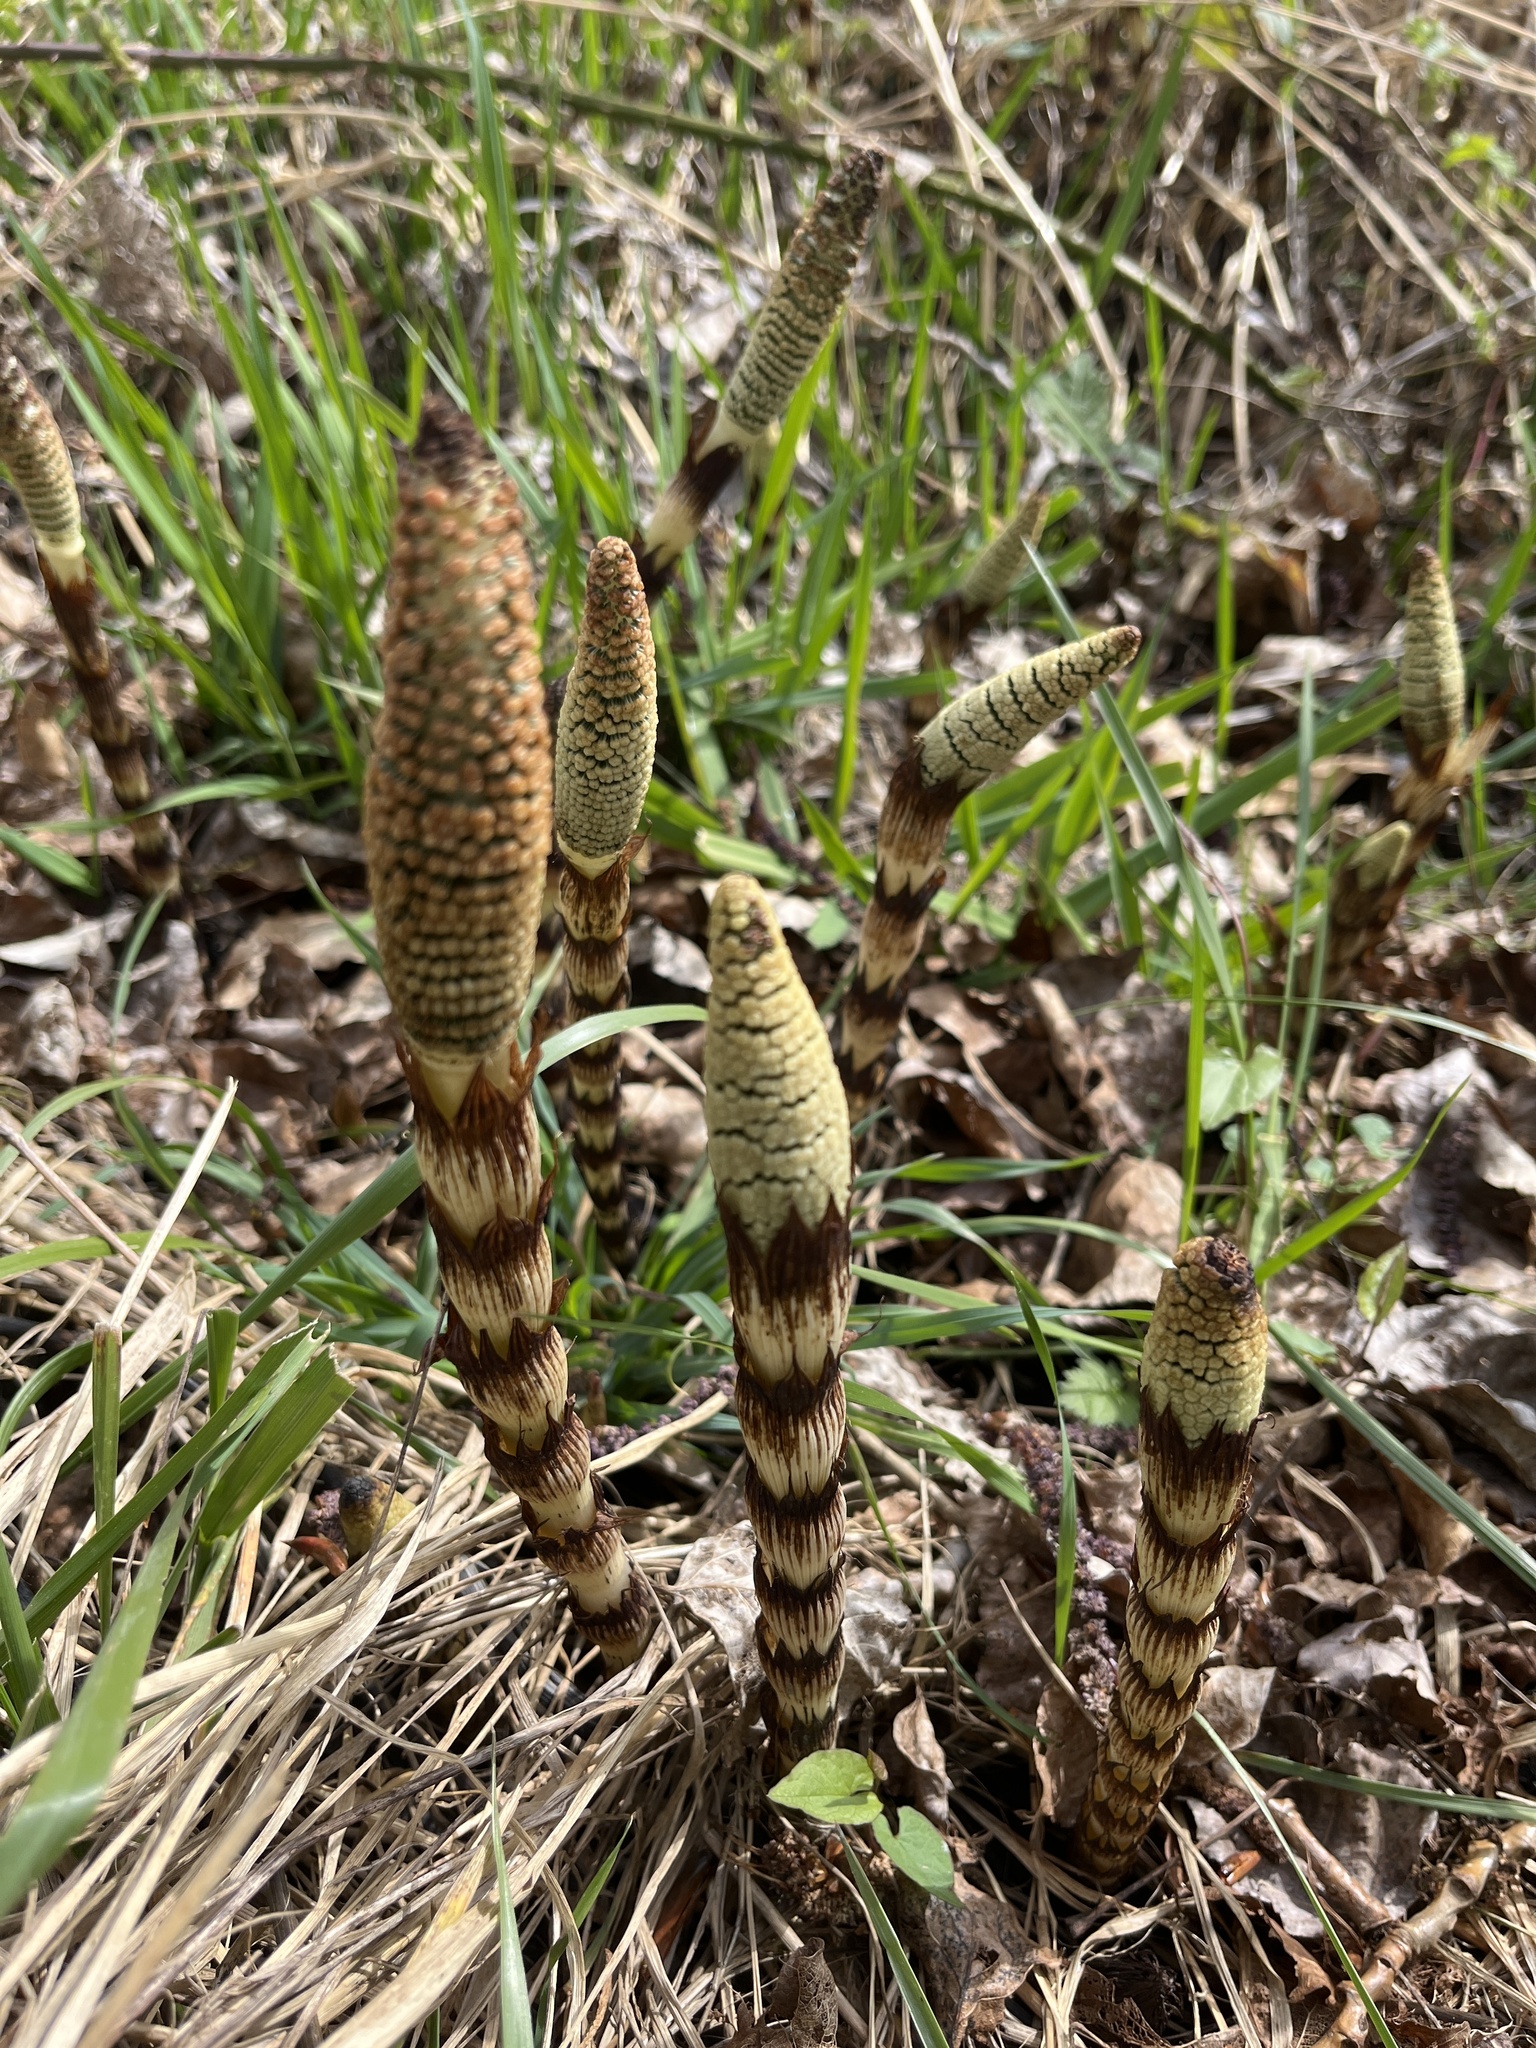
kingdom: Plantae
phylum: Tracheophyta
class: Polypodiopsida
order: Equisetales
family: Equisetaceae
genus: Equisetum
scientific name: Equisetum telmateia
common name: Great horsetail
